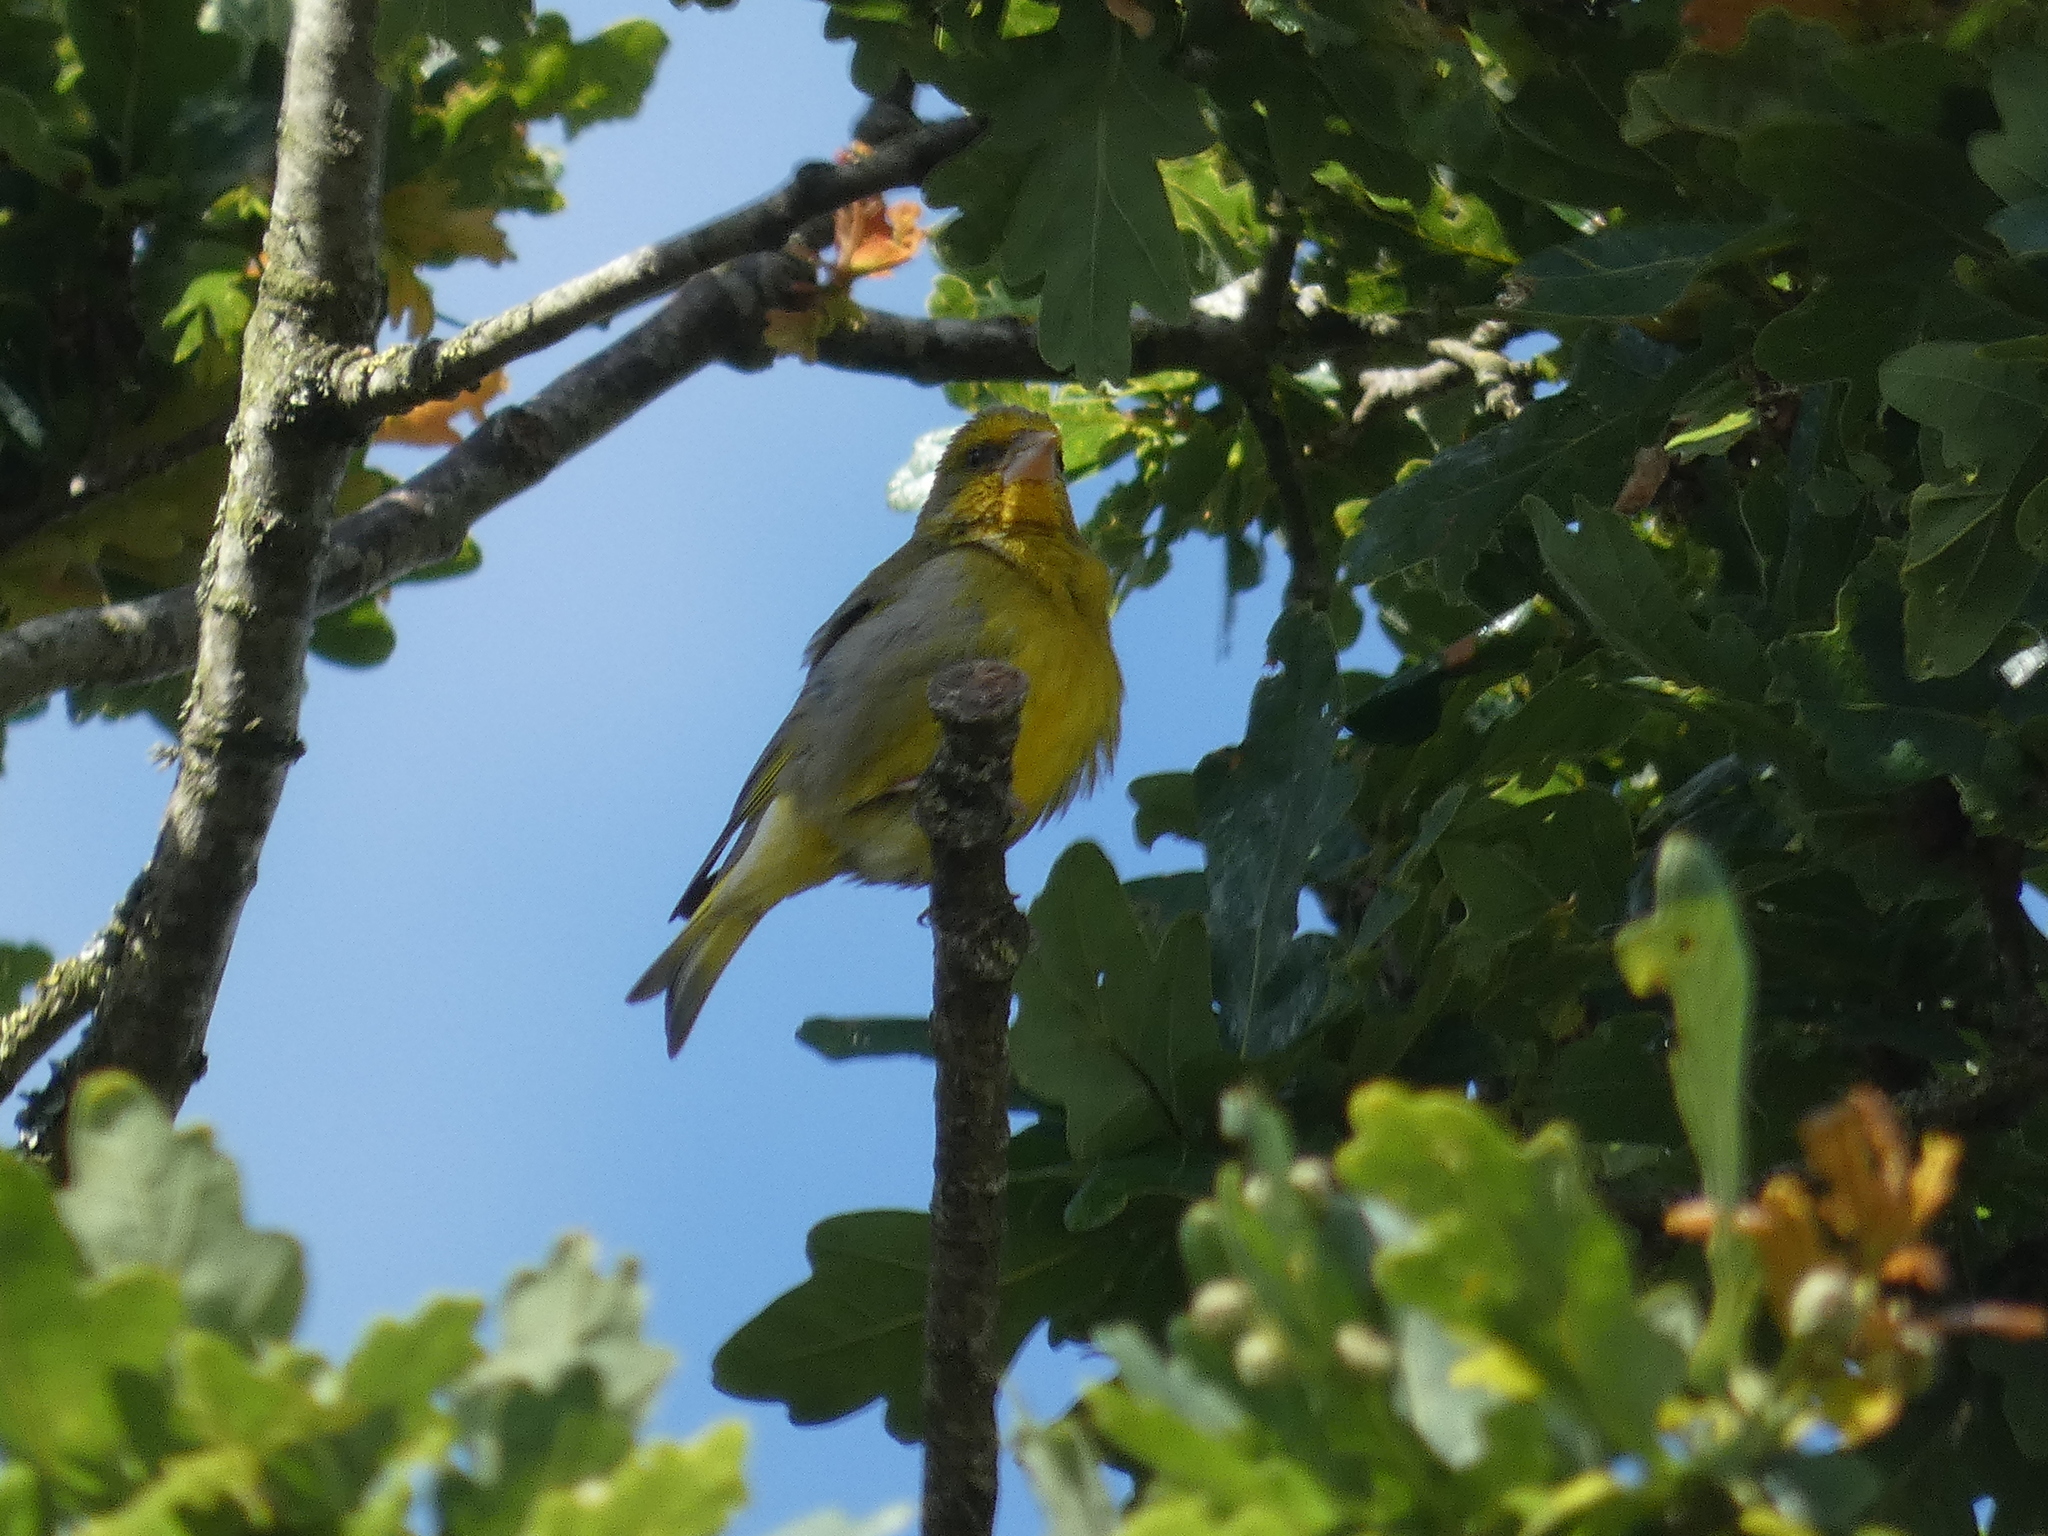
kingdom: Plantae
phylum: Tracheophyta
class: Liliopsida
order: Poales
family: Poaceae
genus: Chloris
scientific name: Chloris chloris
